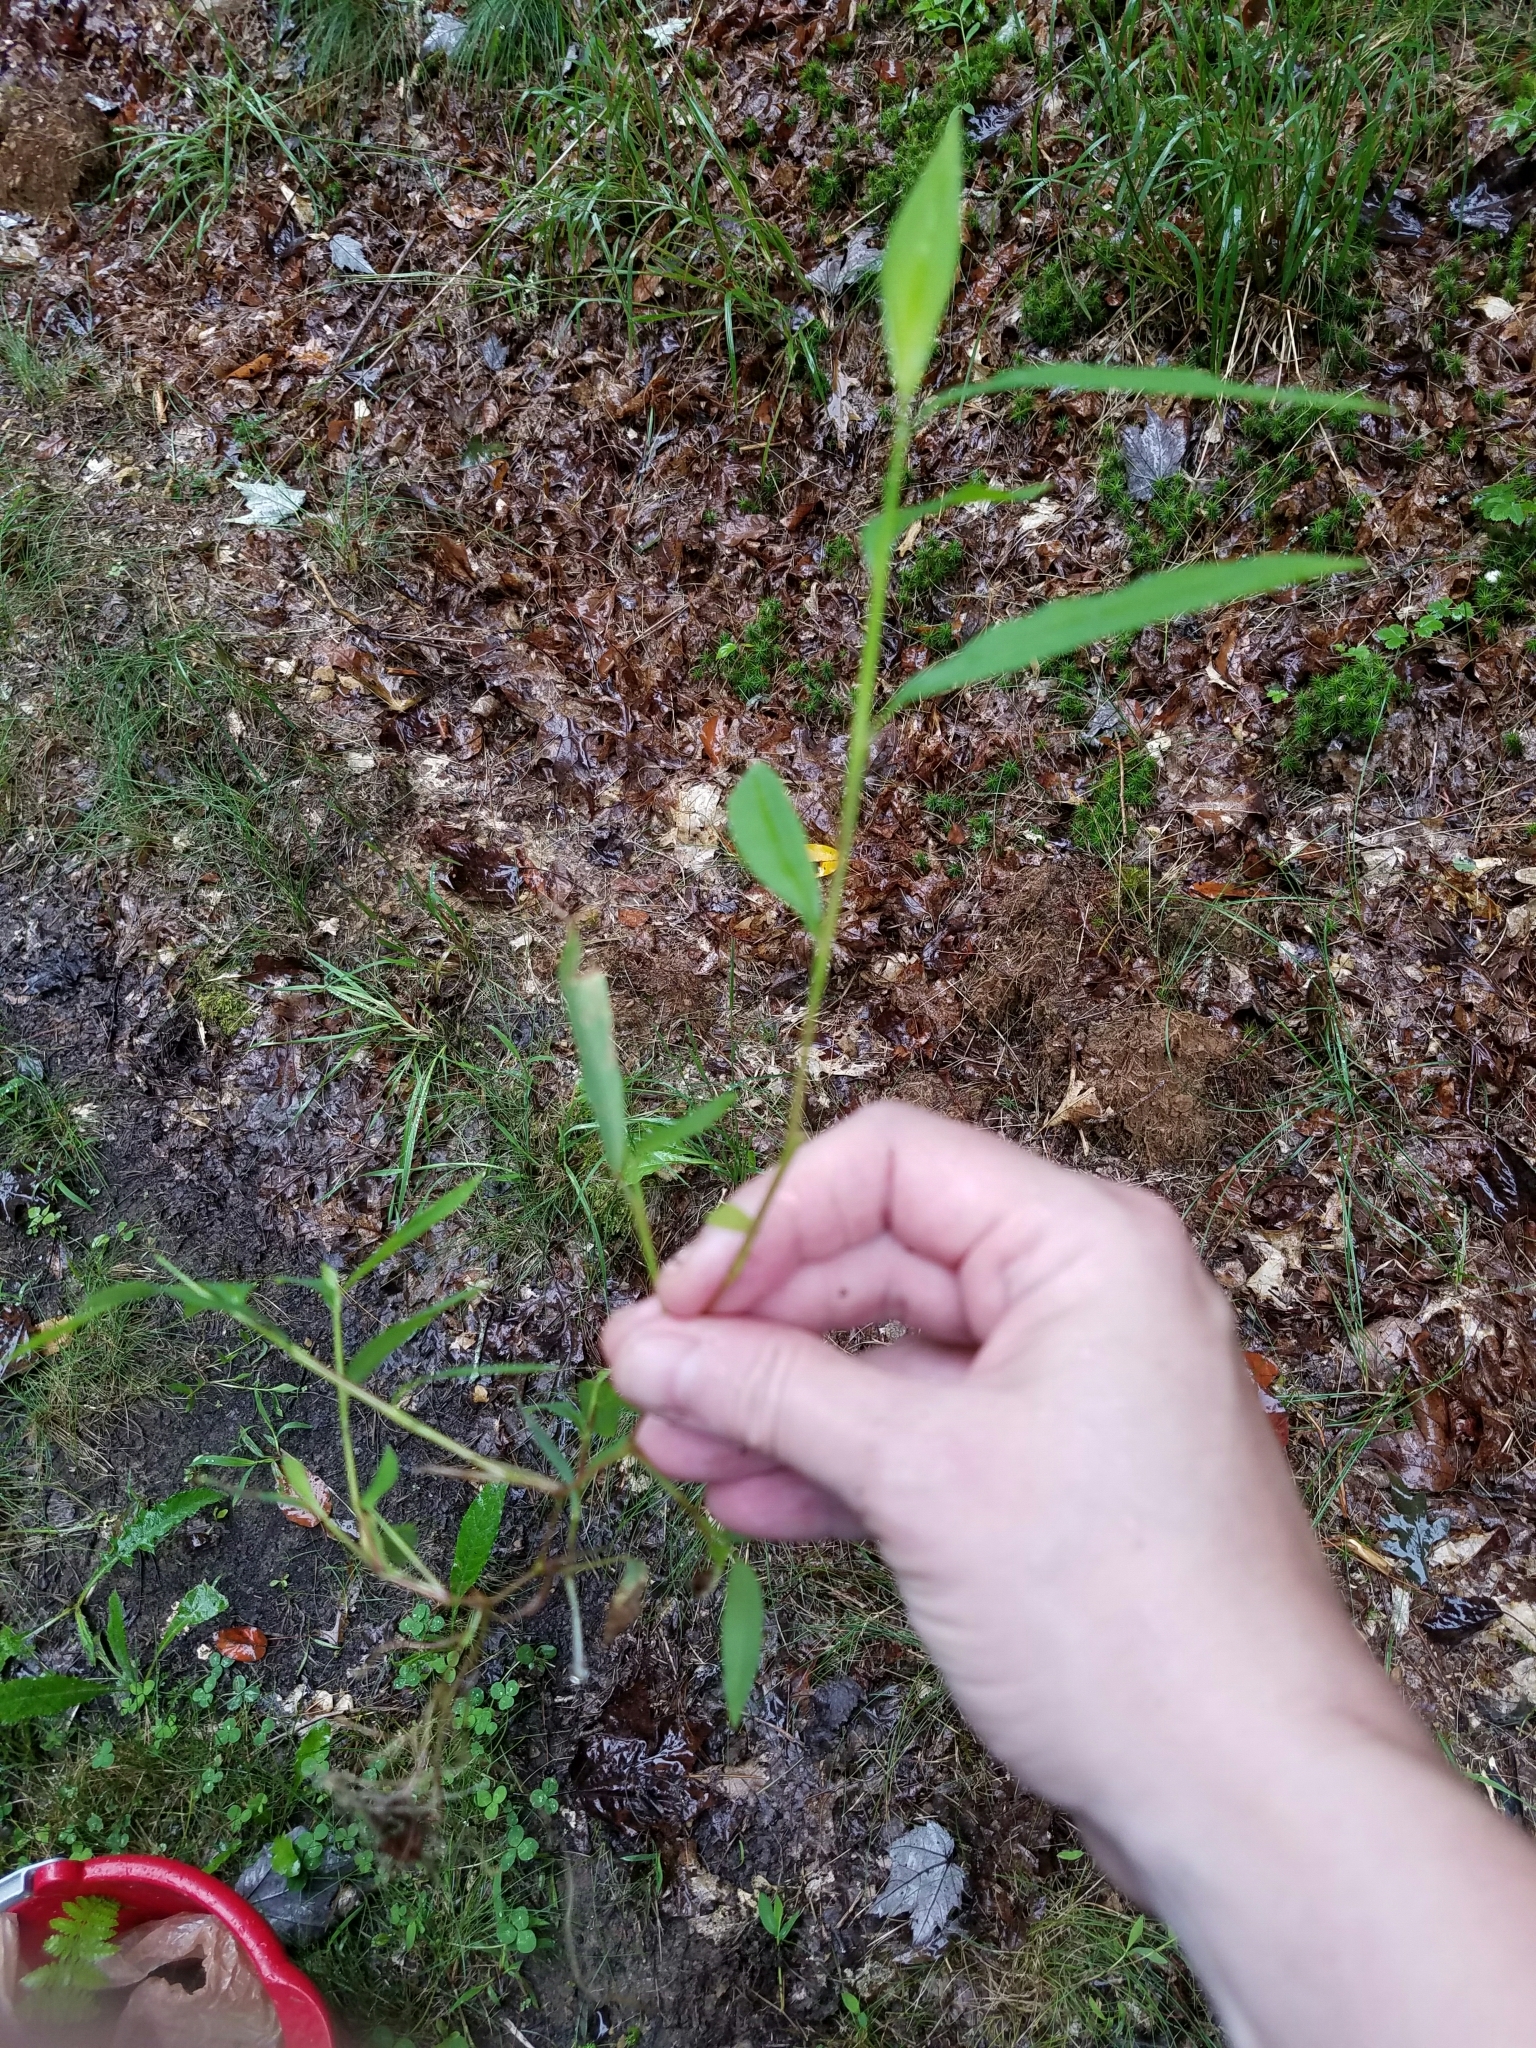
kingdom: Plantae
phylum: Tracheophyta
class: Liliopsida
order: Poales
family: Poaceae
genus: Microstegium
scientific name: Microstegium vimineum
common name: Japanese stiltgrass
